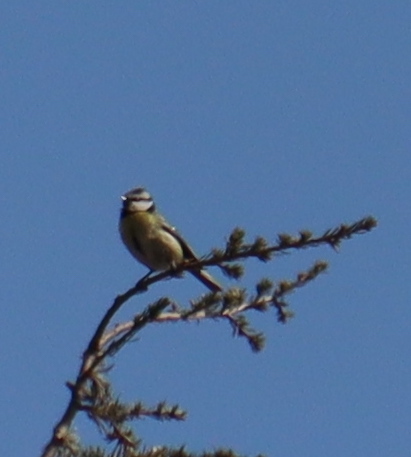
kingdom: Animalia
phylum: Chordata
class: Aves
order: Passeriformes
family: Paridae
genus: Cyanistes
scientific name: Cyanistes caeruleus
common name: Eurasian blue tit
